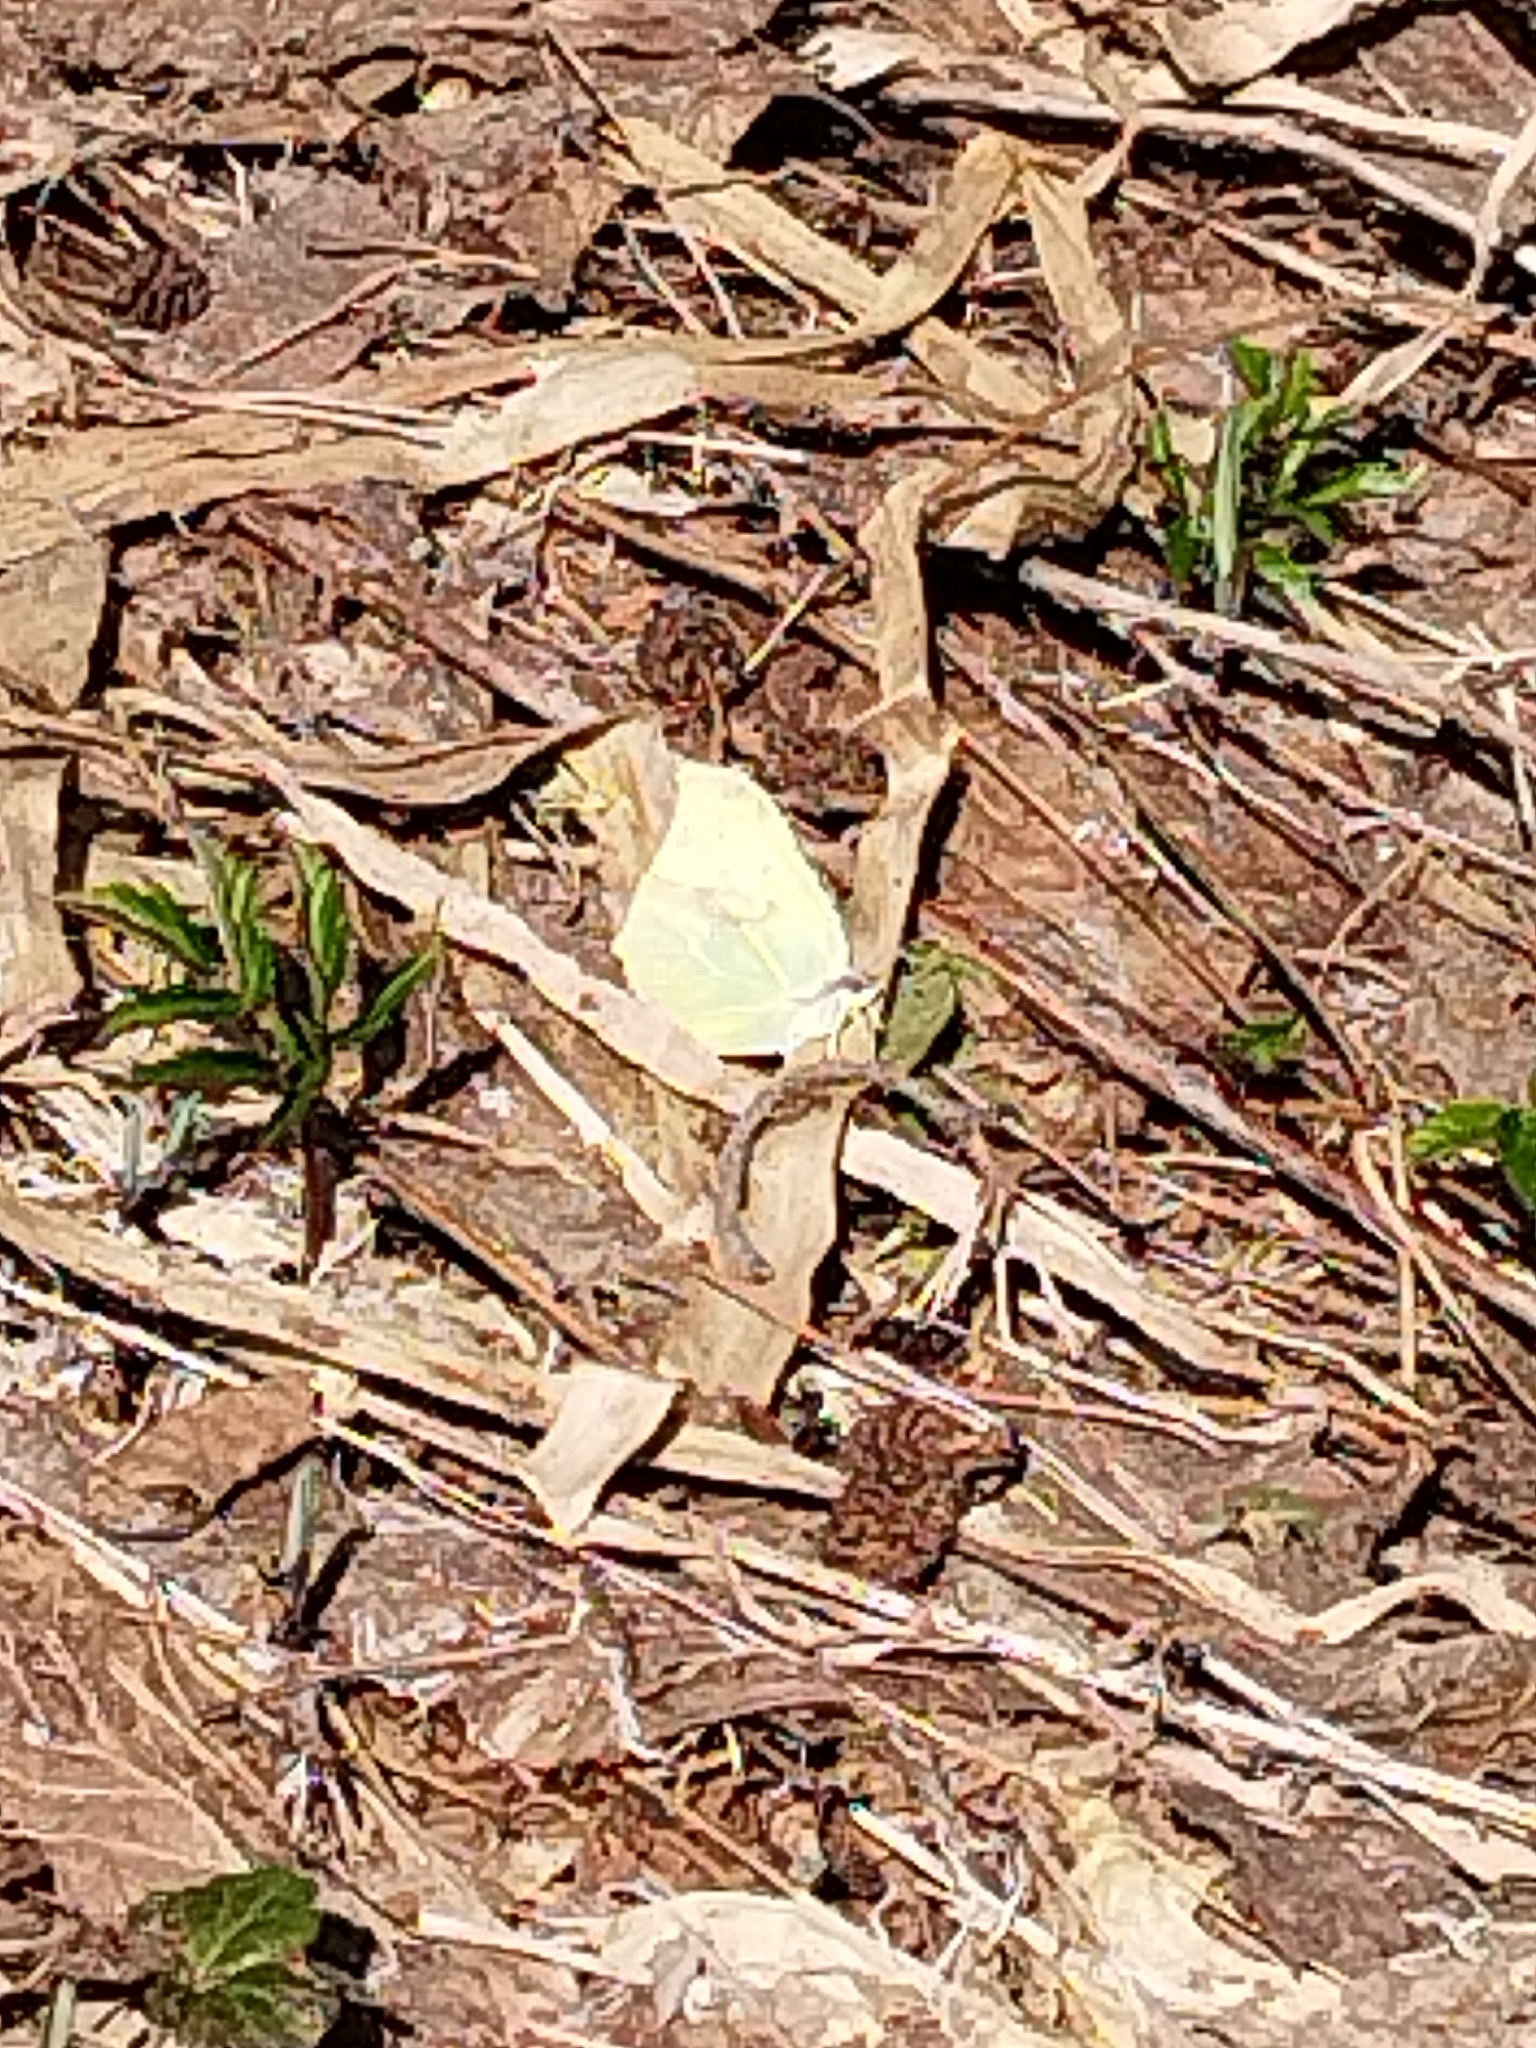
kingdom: Animalia
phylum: Arthropoda
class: Insecta
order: Lepidoptera
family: Pieridae
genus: Gonepteryx
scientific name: Gonepteryx rhamni
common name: Brimstone
